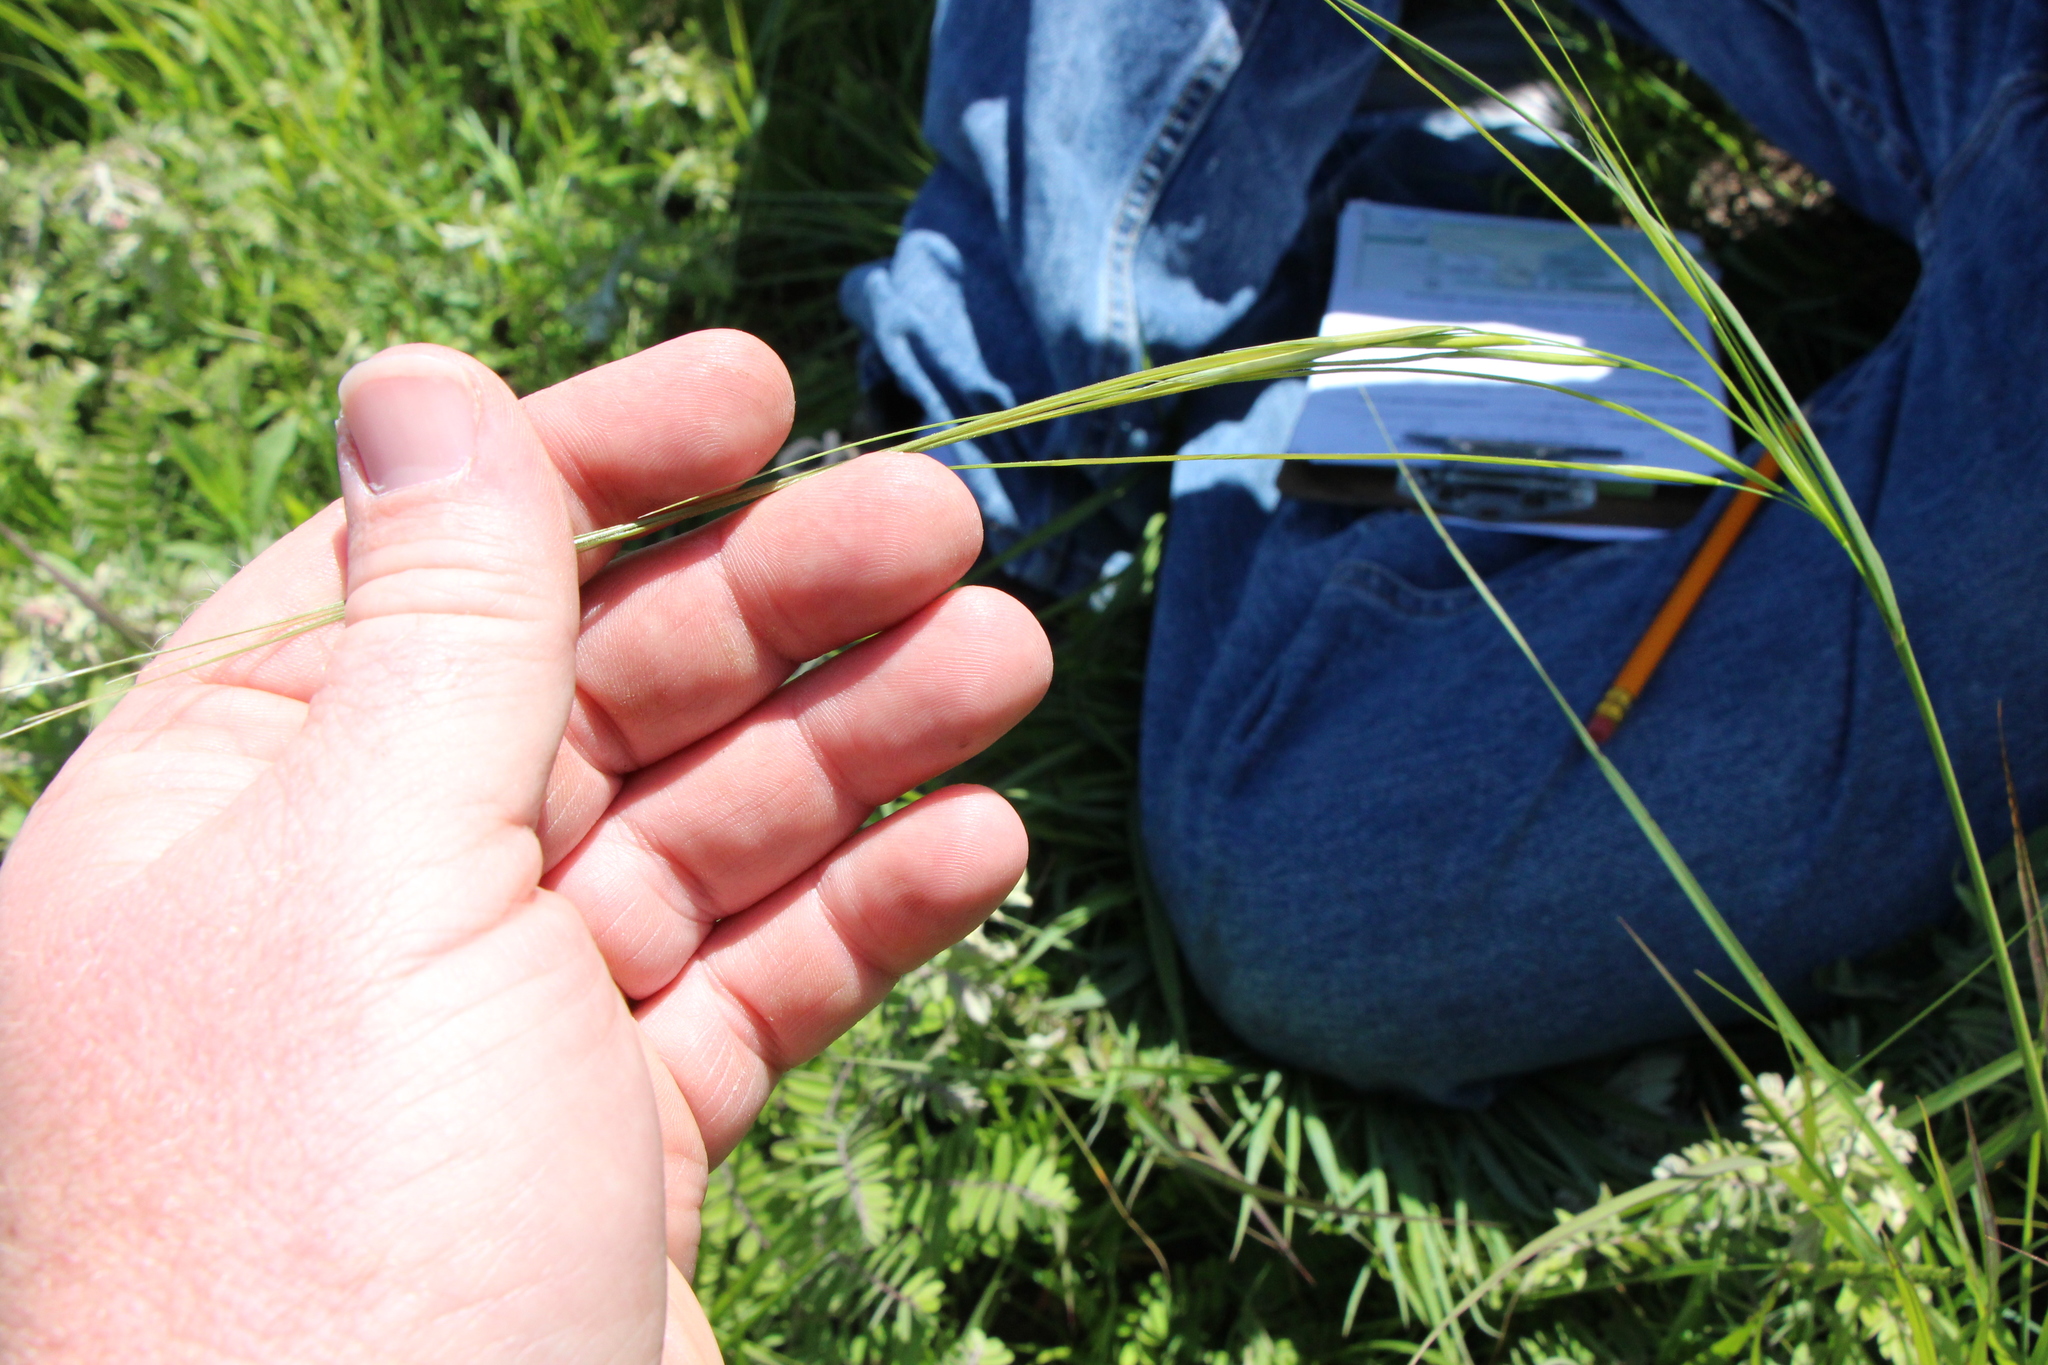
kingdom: Plantae
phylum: Tracheophyta
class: Liliopsida
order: Poales
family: Poaceae
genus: Hesperostipa
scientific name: Hesperostipa spartea
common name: Porcupine grass
